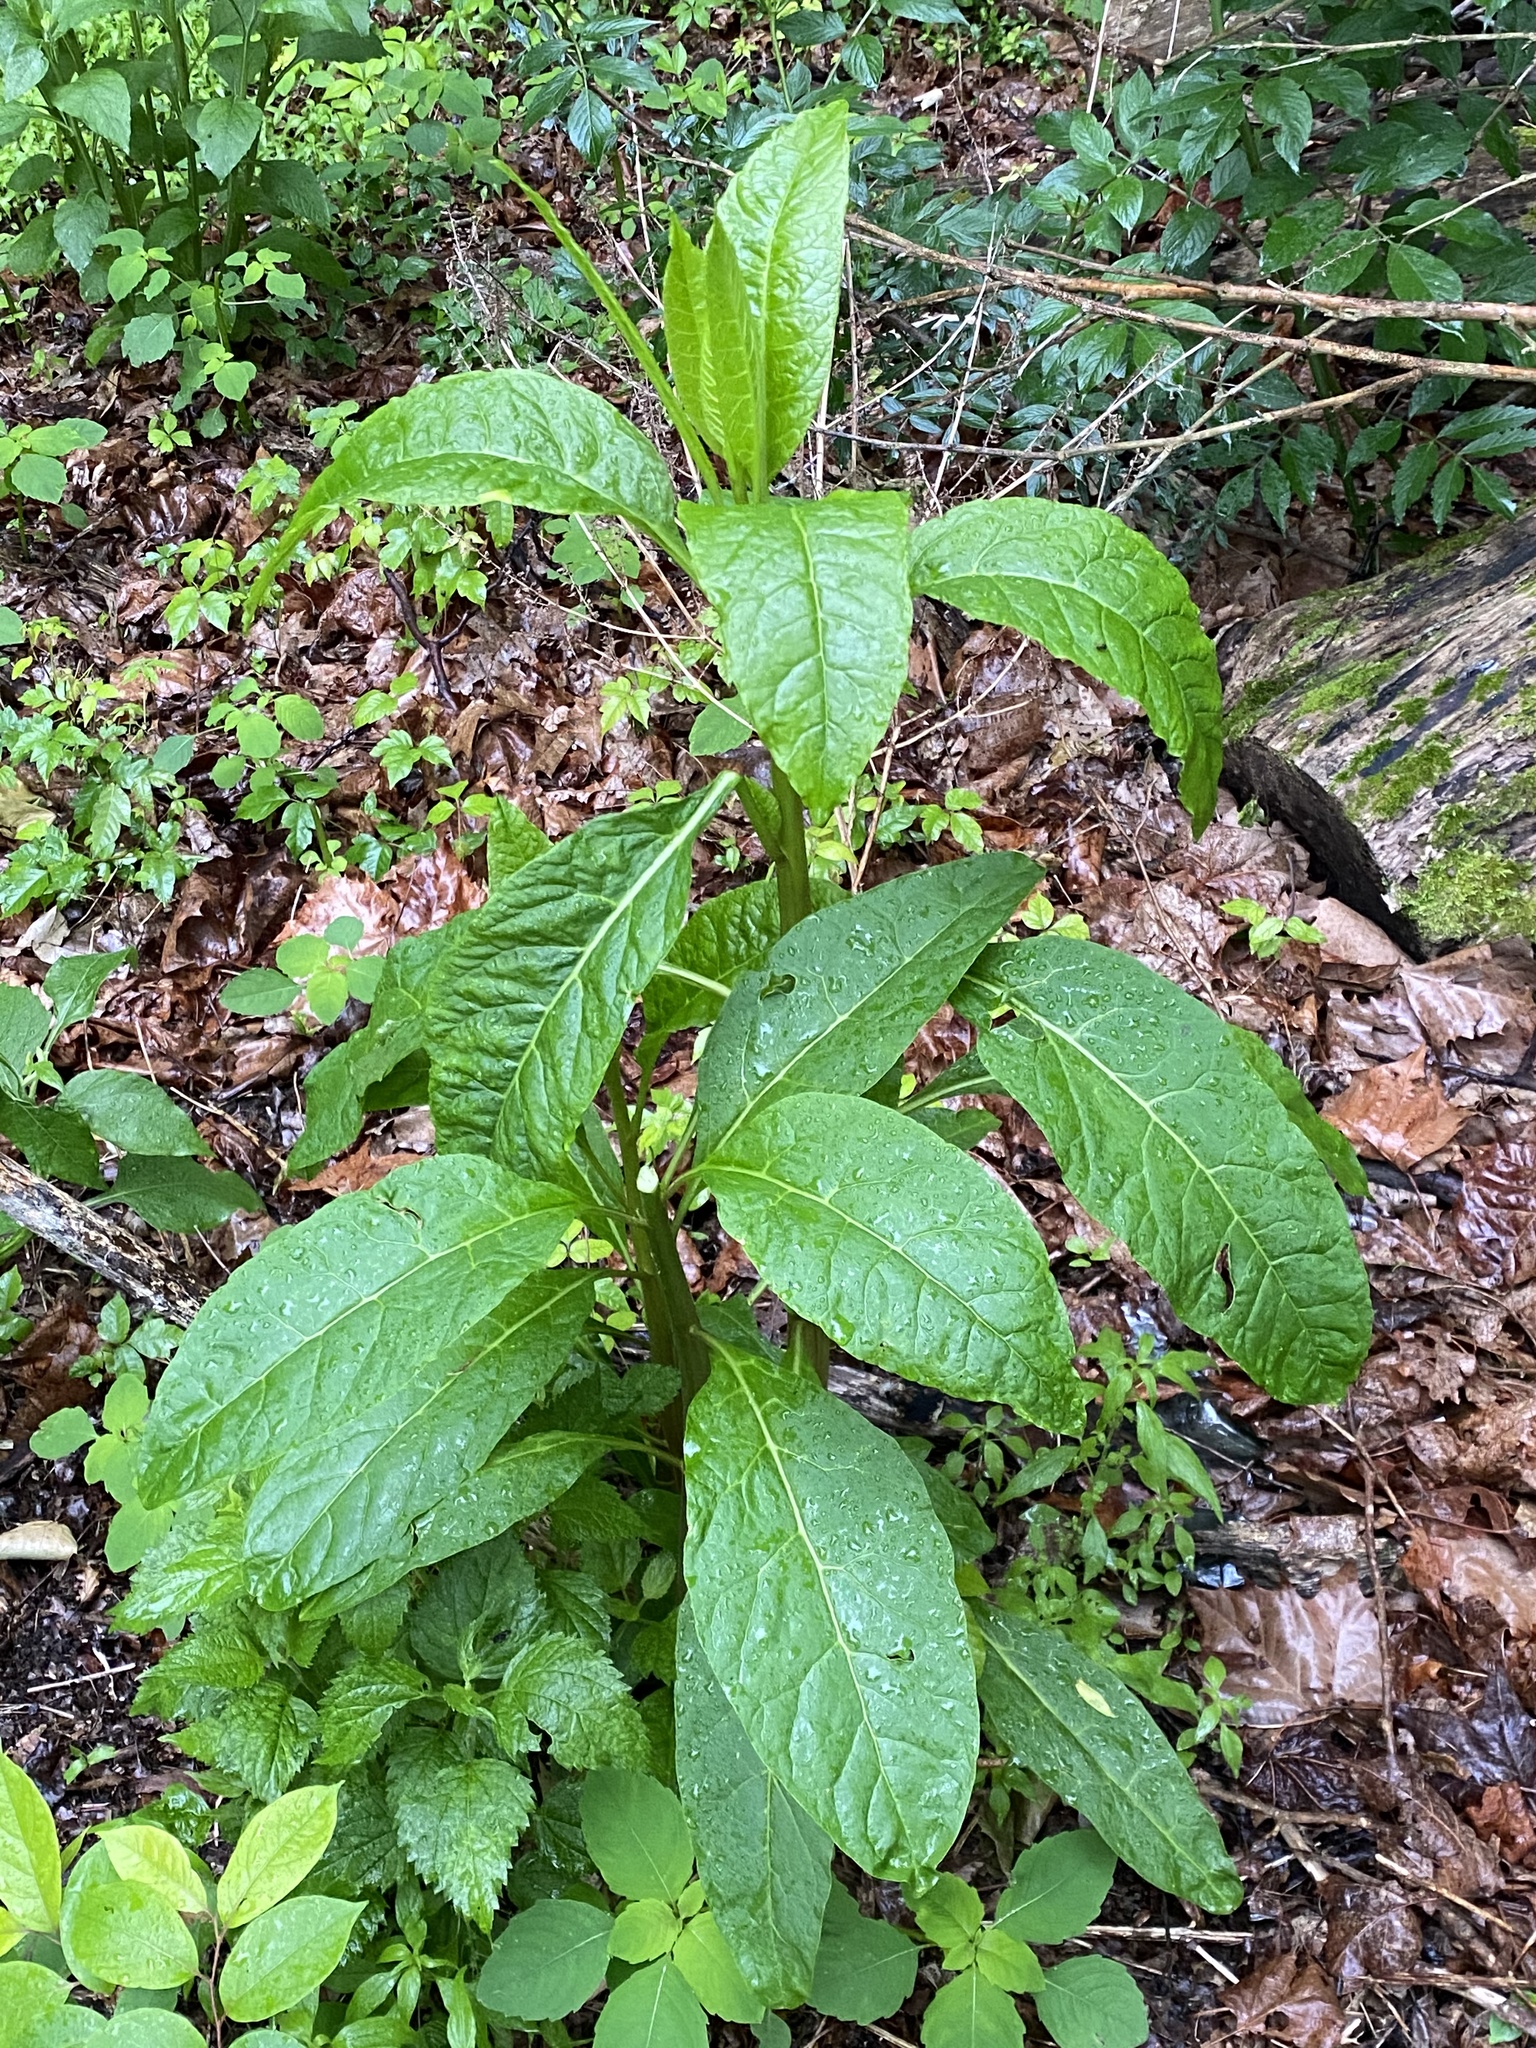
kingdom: Plantae
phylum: Tracheophyta
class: Magnoliopsida
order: Caryophyllales
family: Phytolaccaceae
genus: Phytolacca
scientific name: Phytolacca americana
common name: American pokeweed
